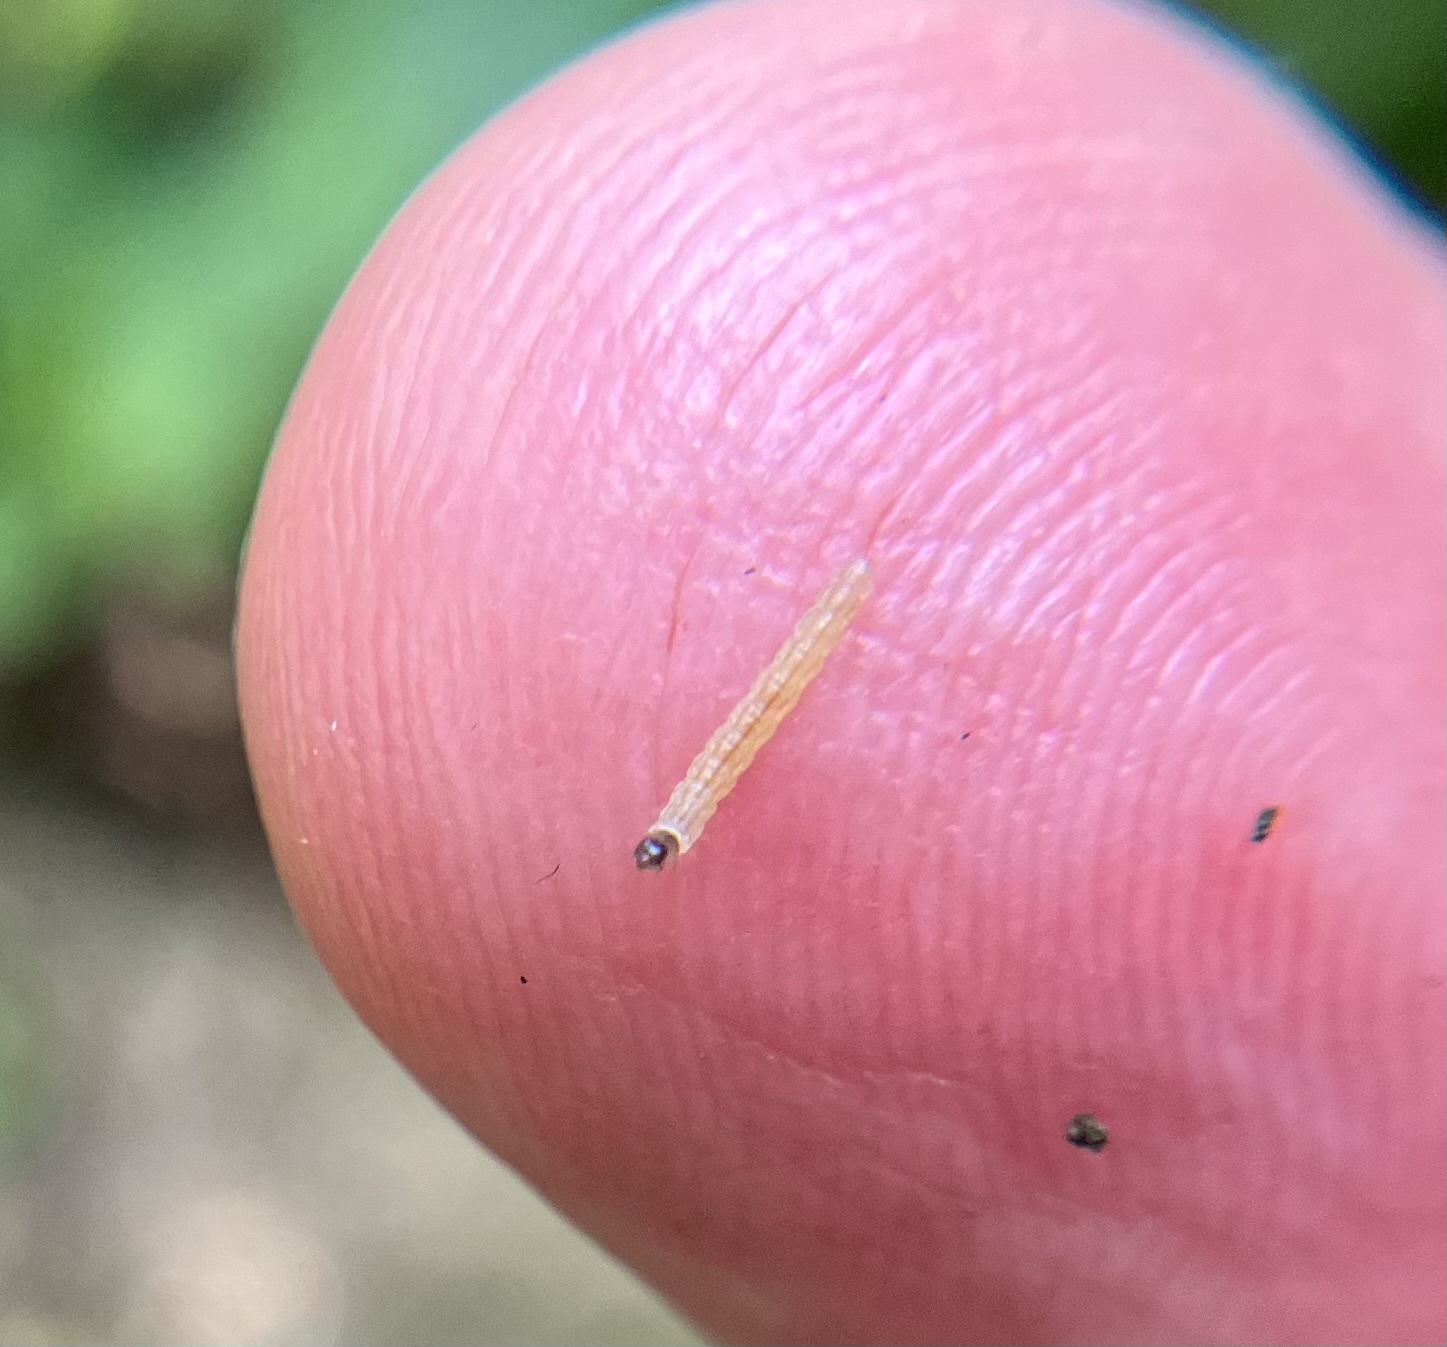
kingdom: Animalia
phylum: Arthropoda
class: Insecta
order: Lepidoptera
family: Tortricidae
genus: Platynota
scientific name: Platynota semiustana
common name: Singed platynota
